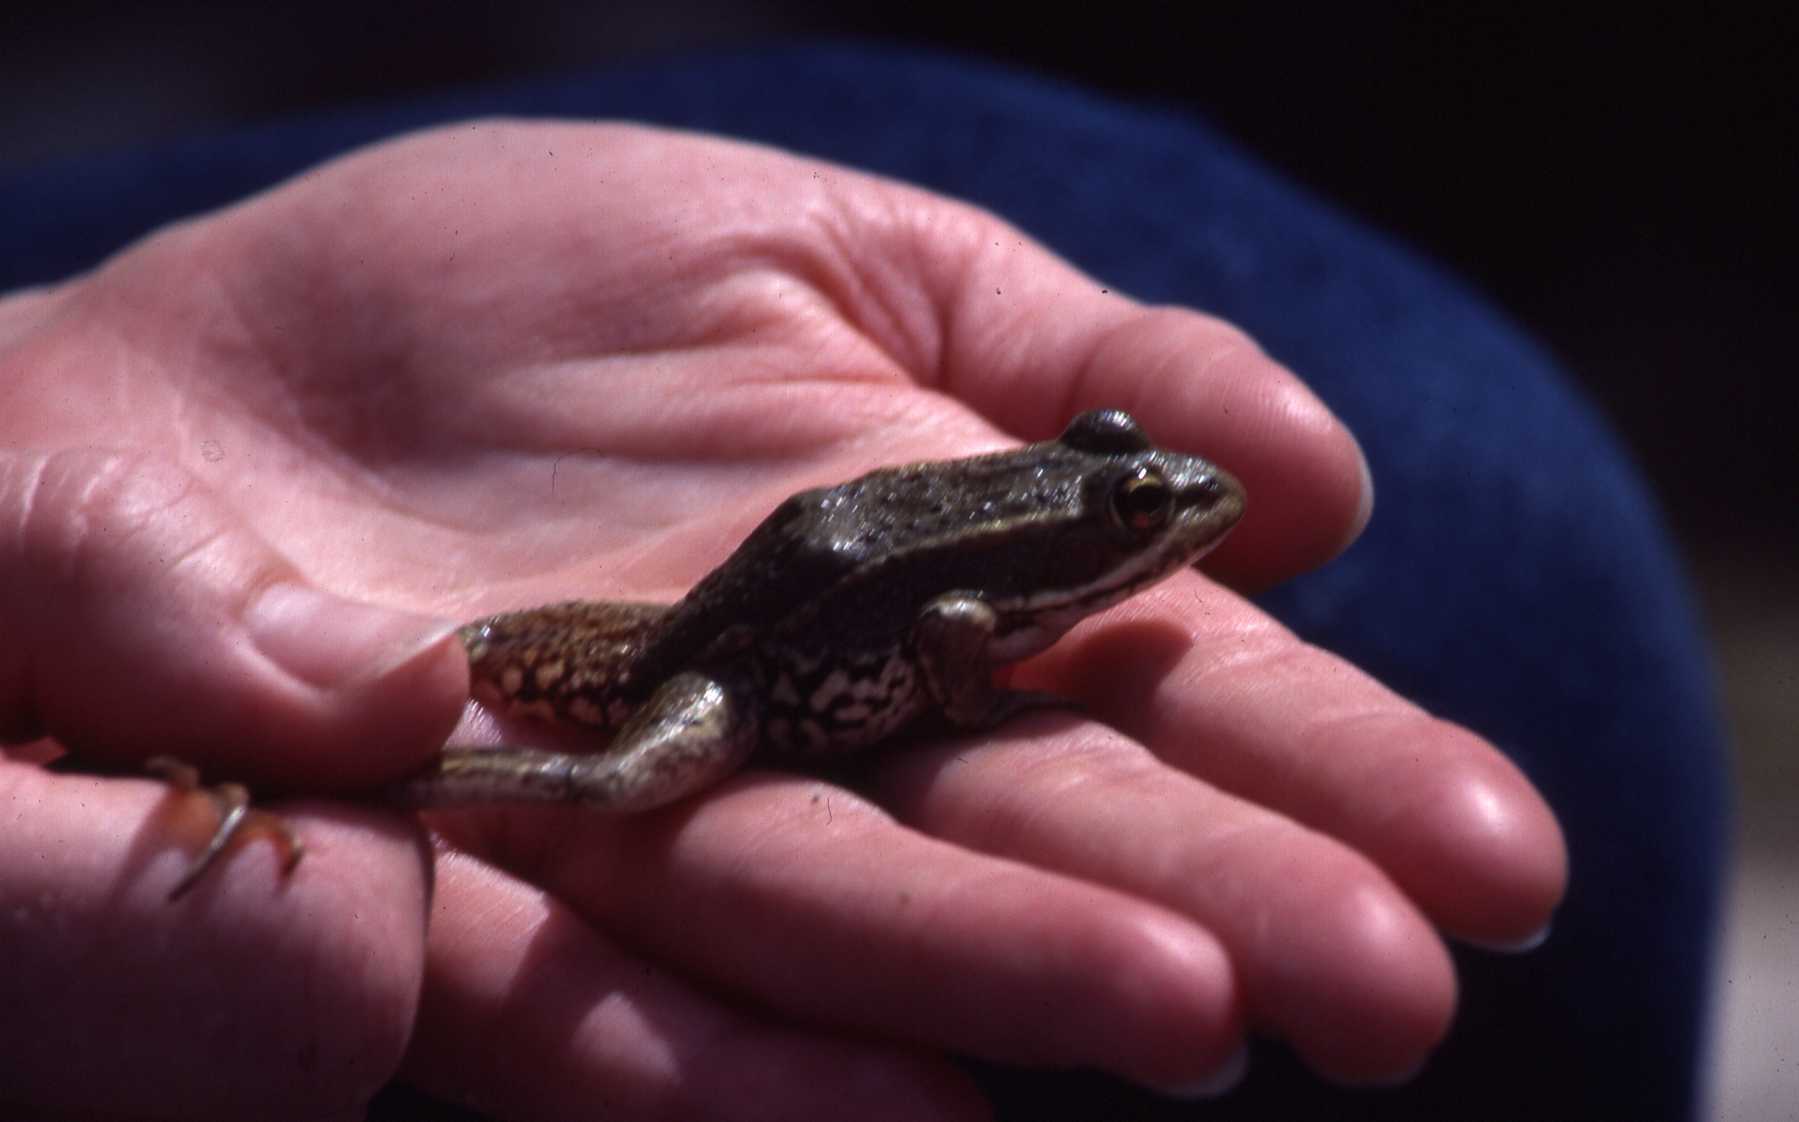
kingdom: Animalia
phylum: Chordata
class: Amphibia
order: Anura
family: Ranidae
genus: Pelophylax
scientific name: Pelophylax perezi
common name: Perez's frog
